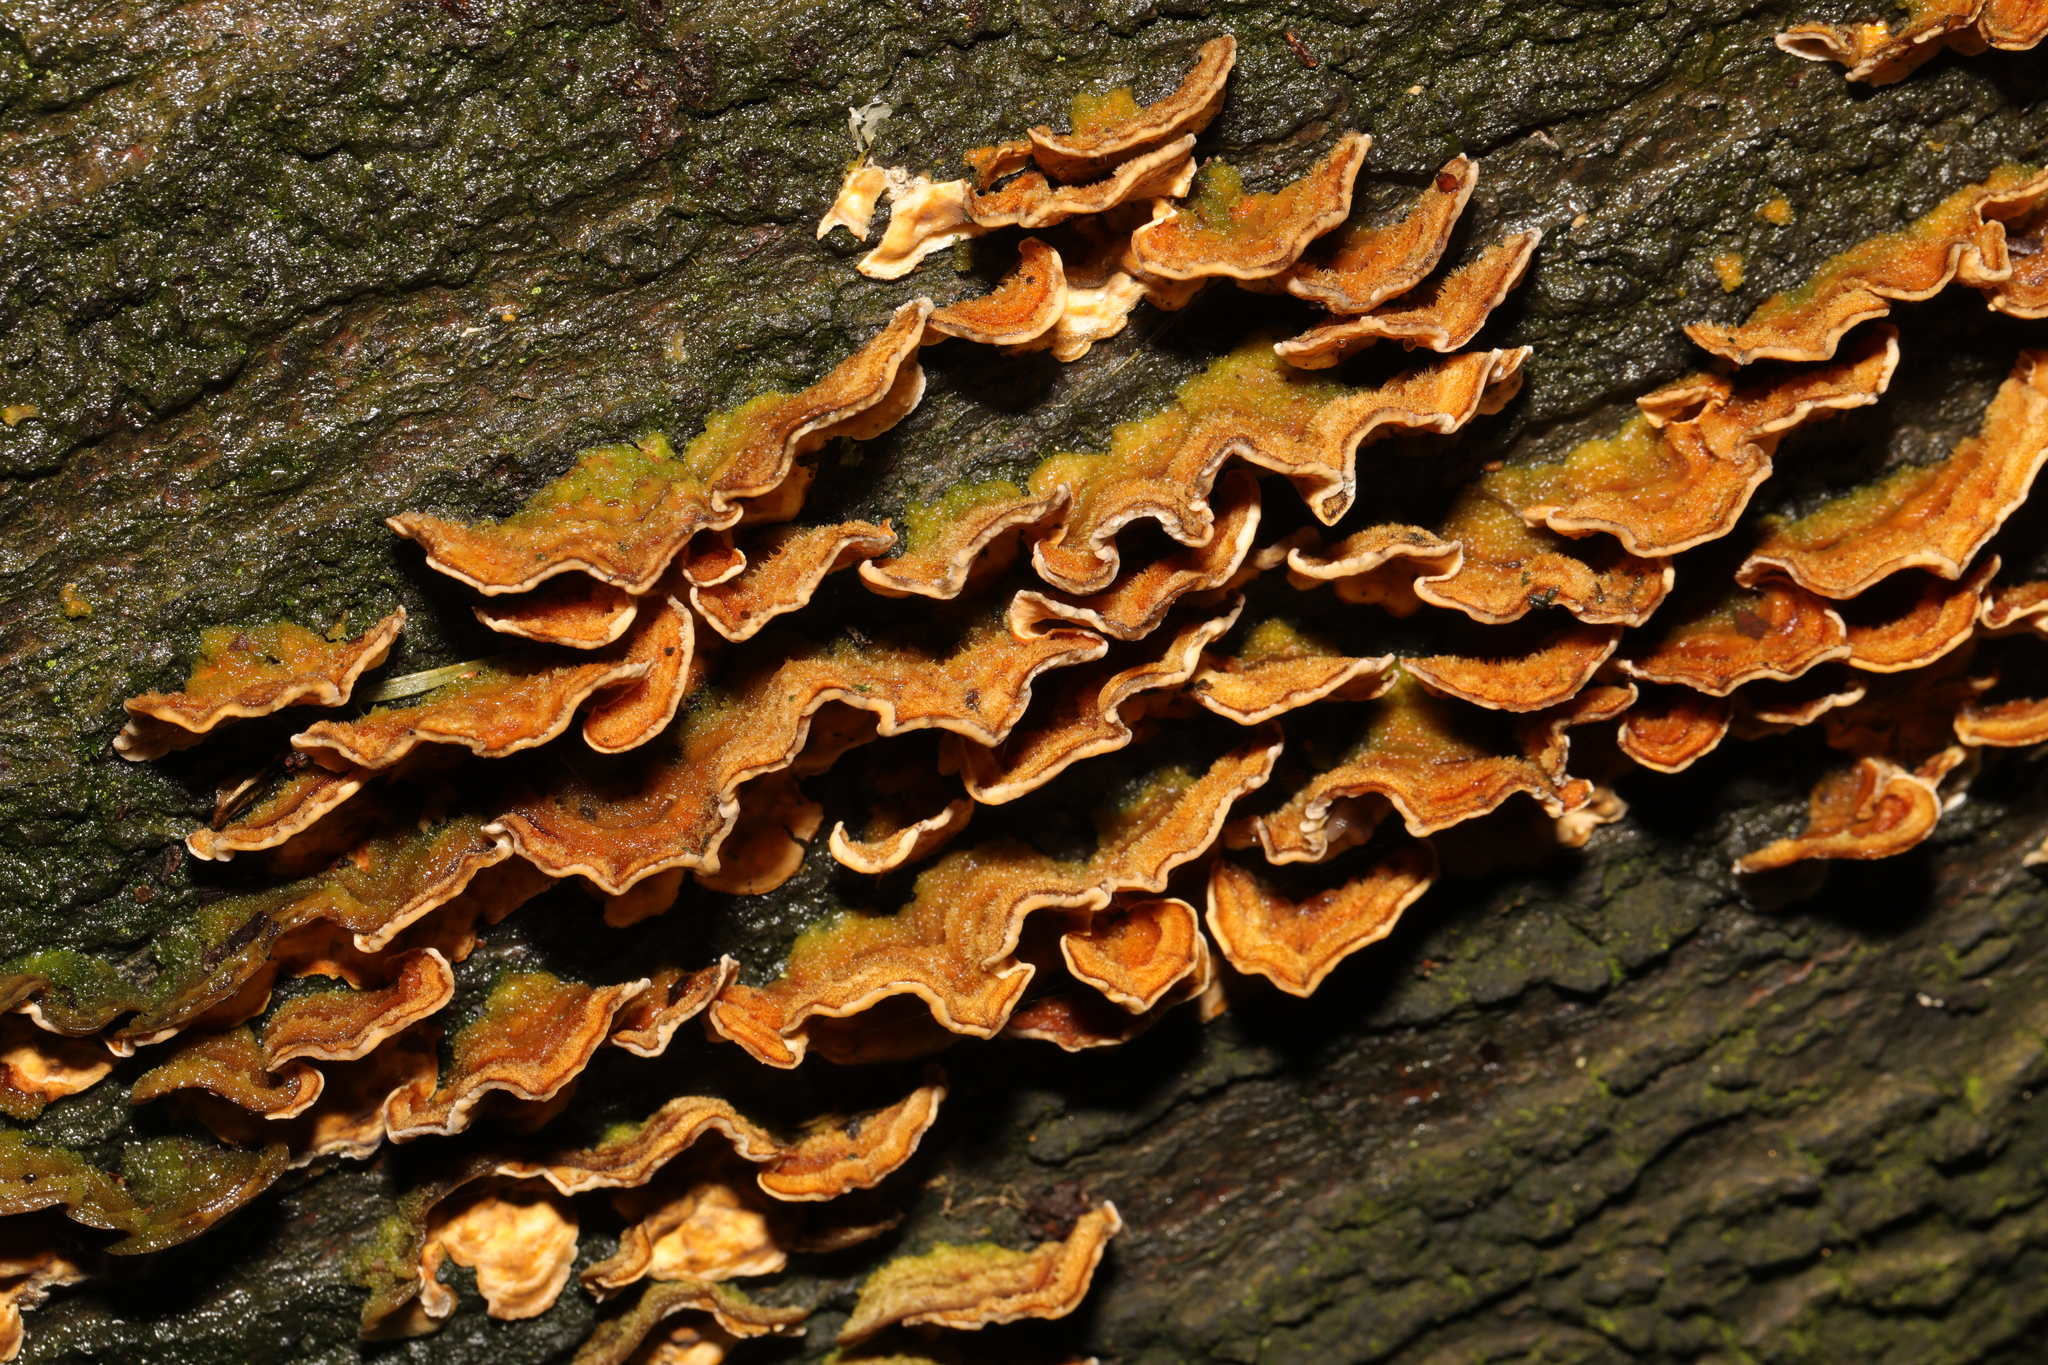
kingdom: Fungi
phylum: Basidiomycota
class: Agaricomycetes
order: Russulales
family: Stereaceae
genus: Stereum
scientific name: Stereum hirsutum
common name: Hairy curtain crust
